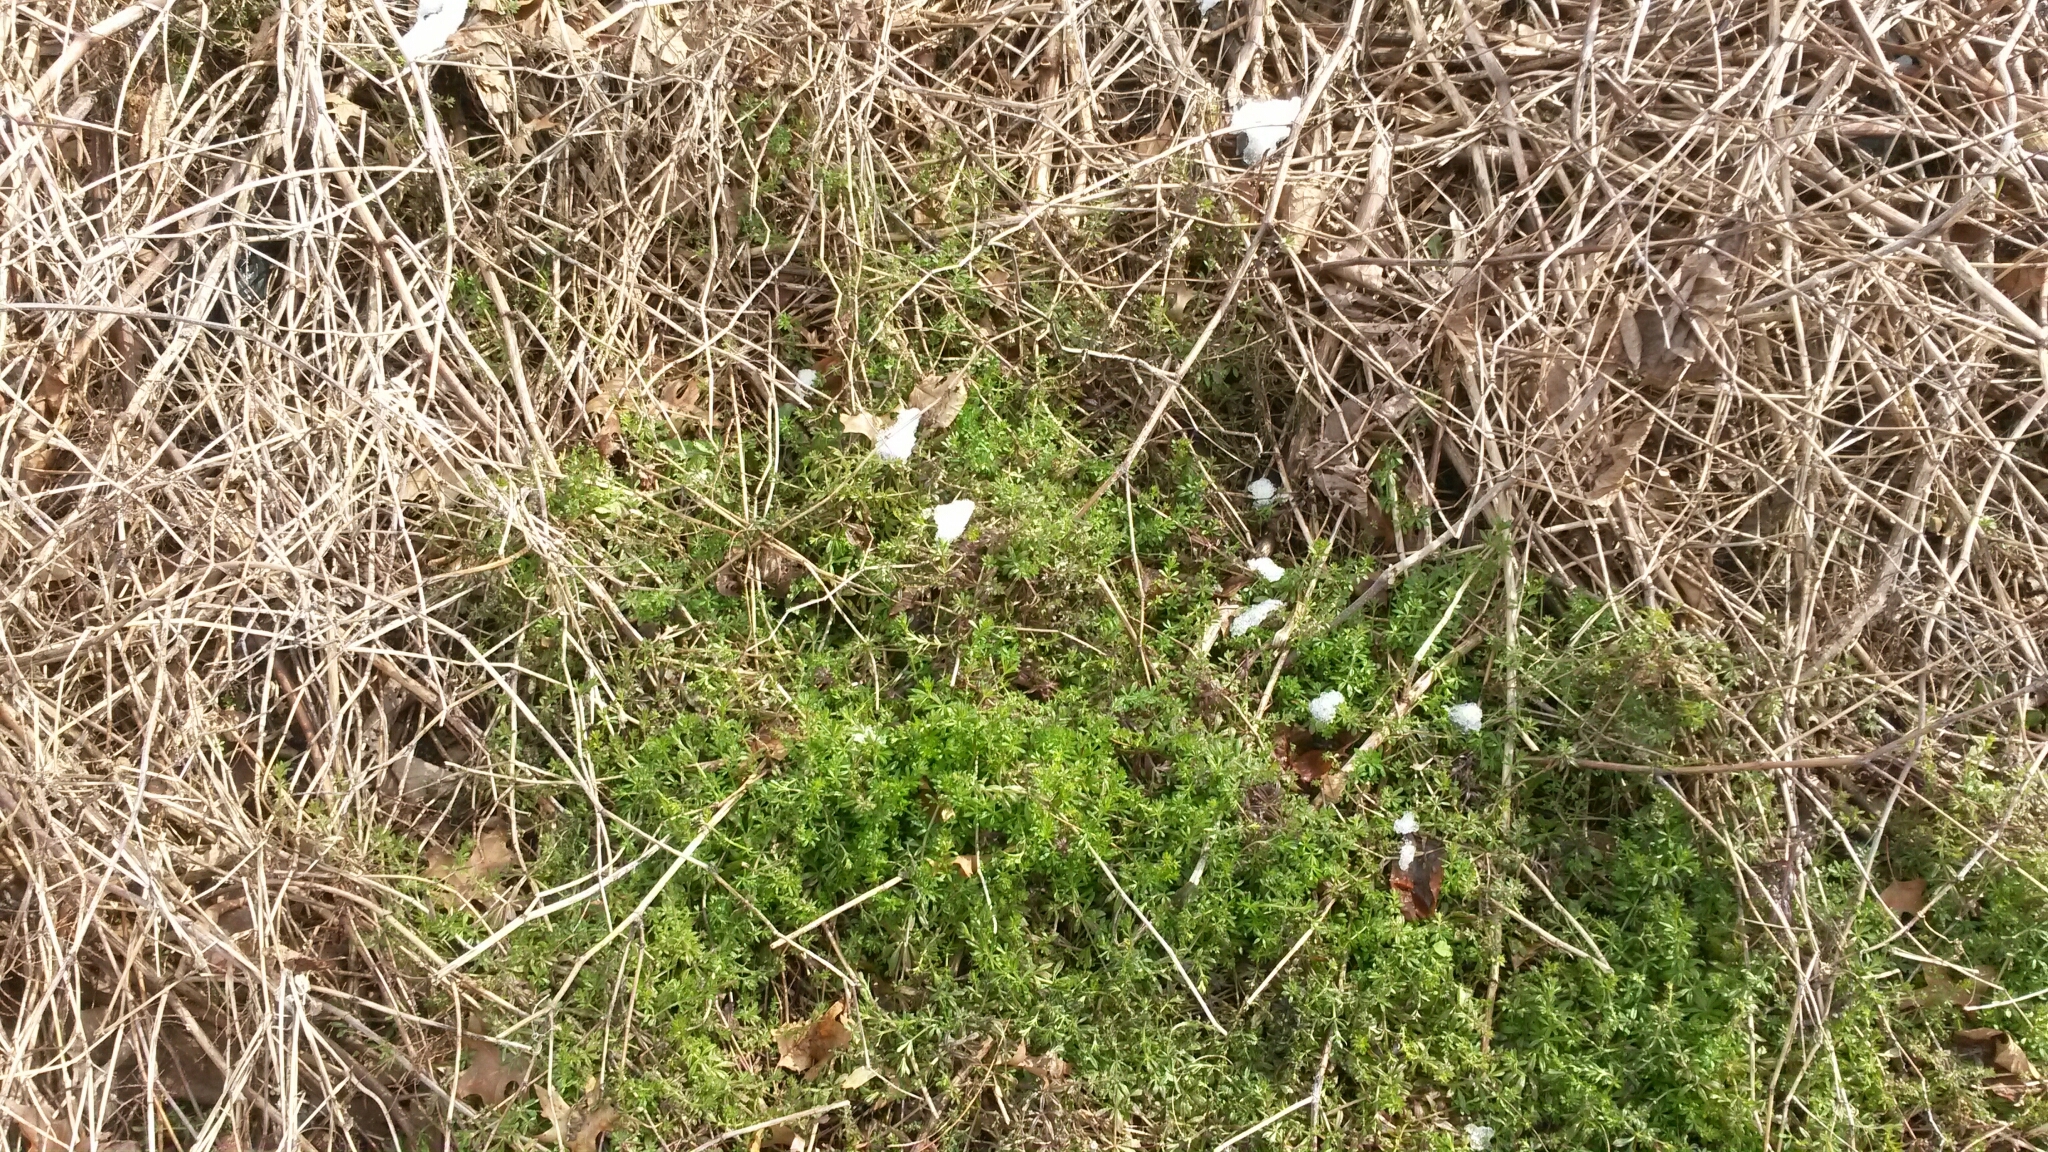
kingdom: Plantae
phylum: Tracheophyta
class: Magnoliopsida
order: Gentianales
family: Rubiaceae
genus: Galium
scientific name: Galium aparine
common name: Cleavers
